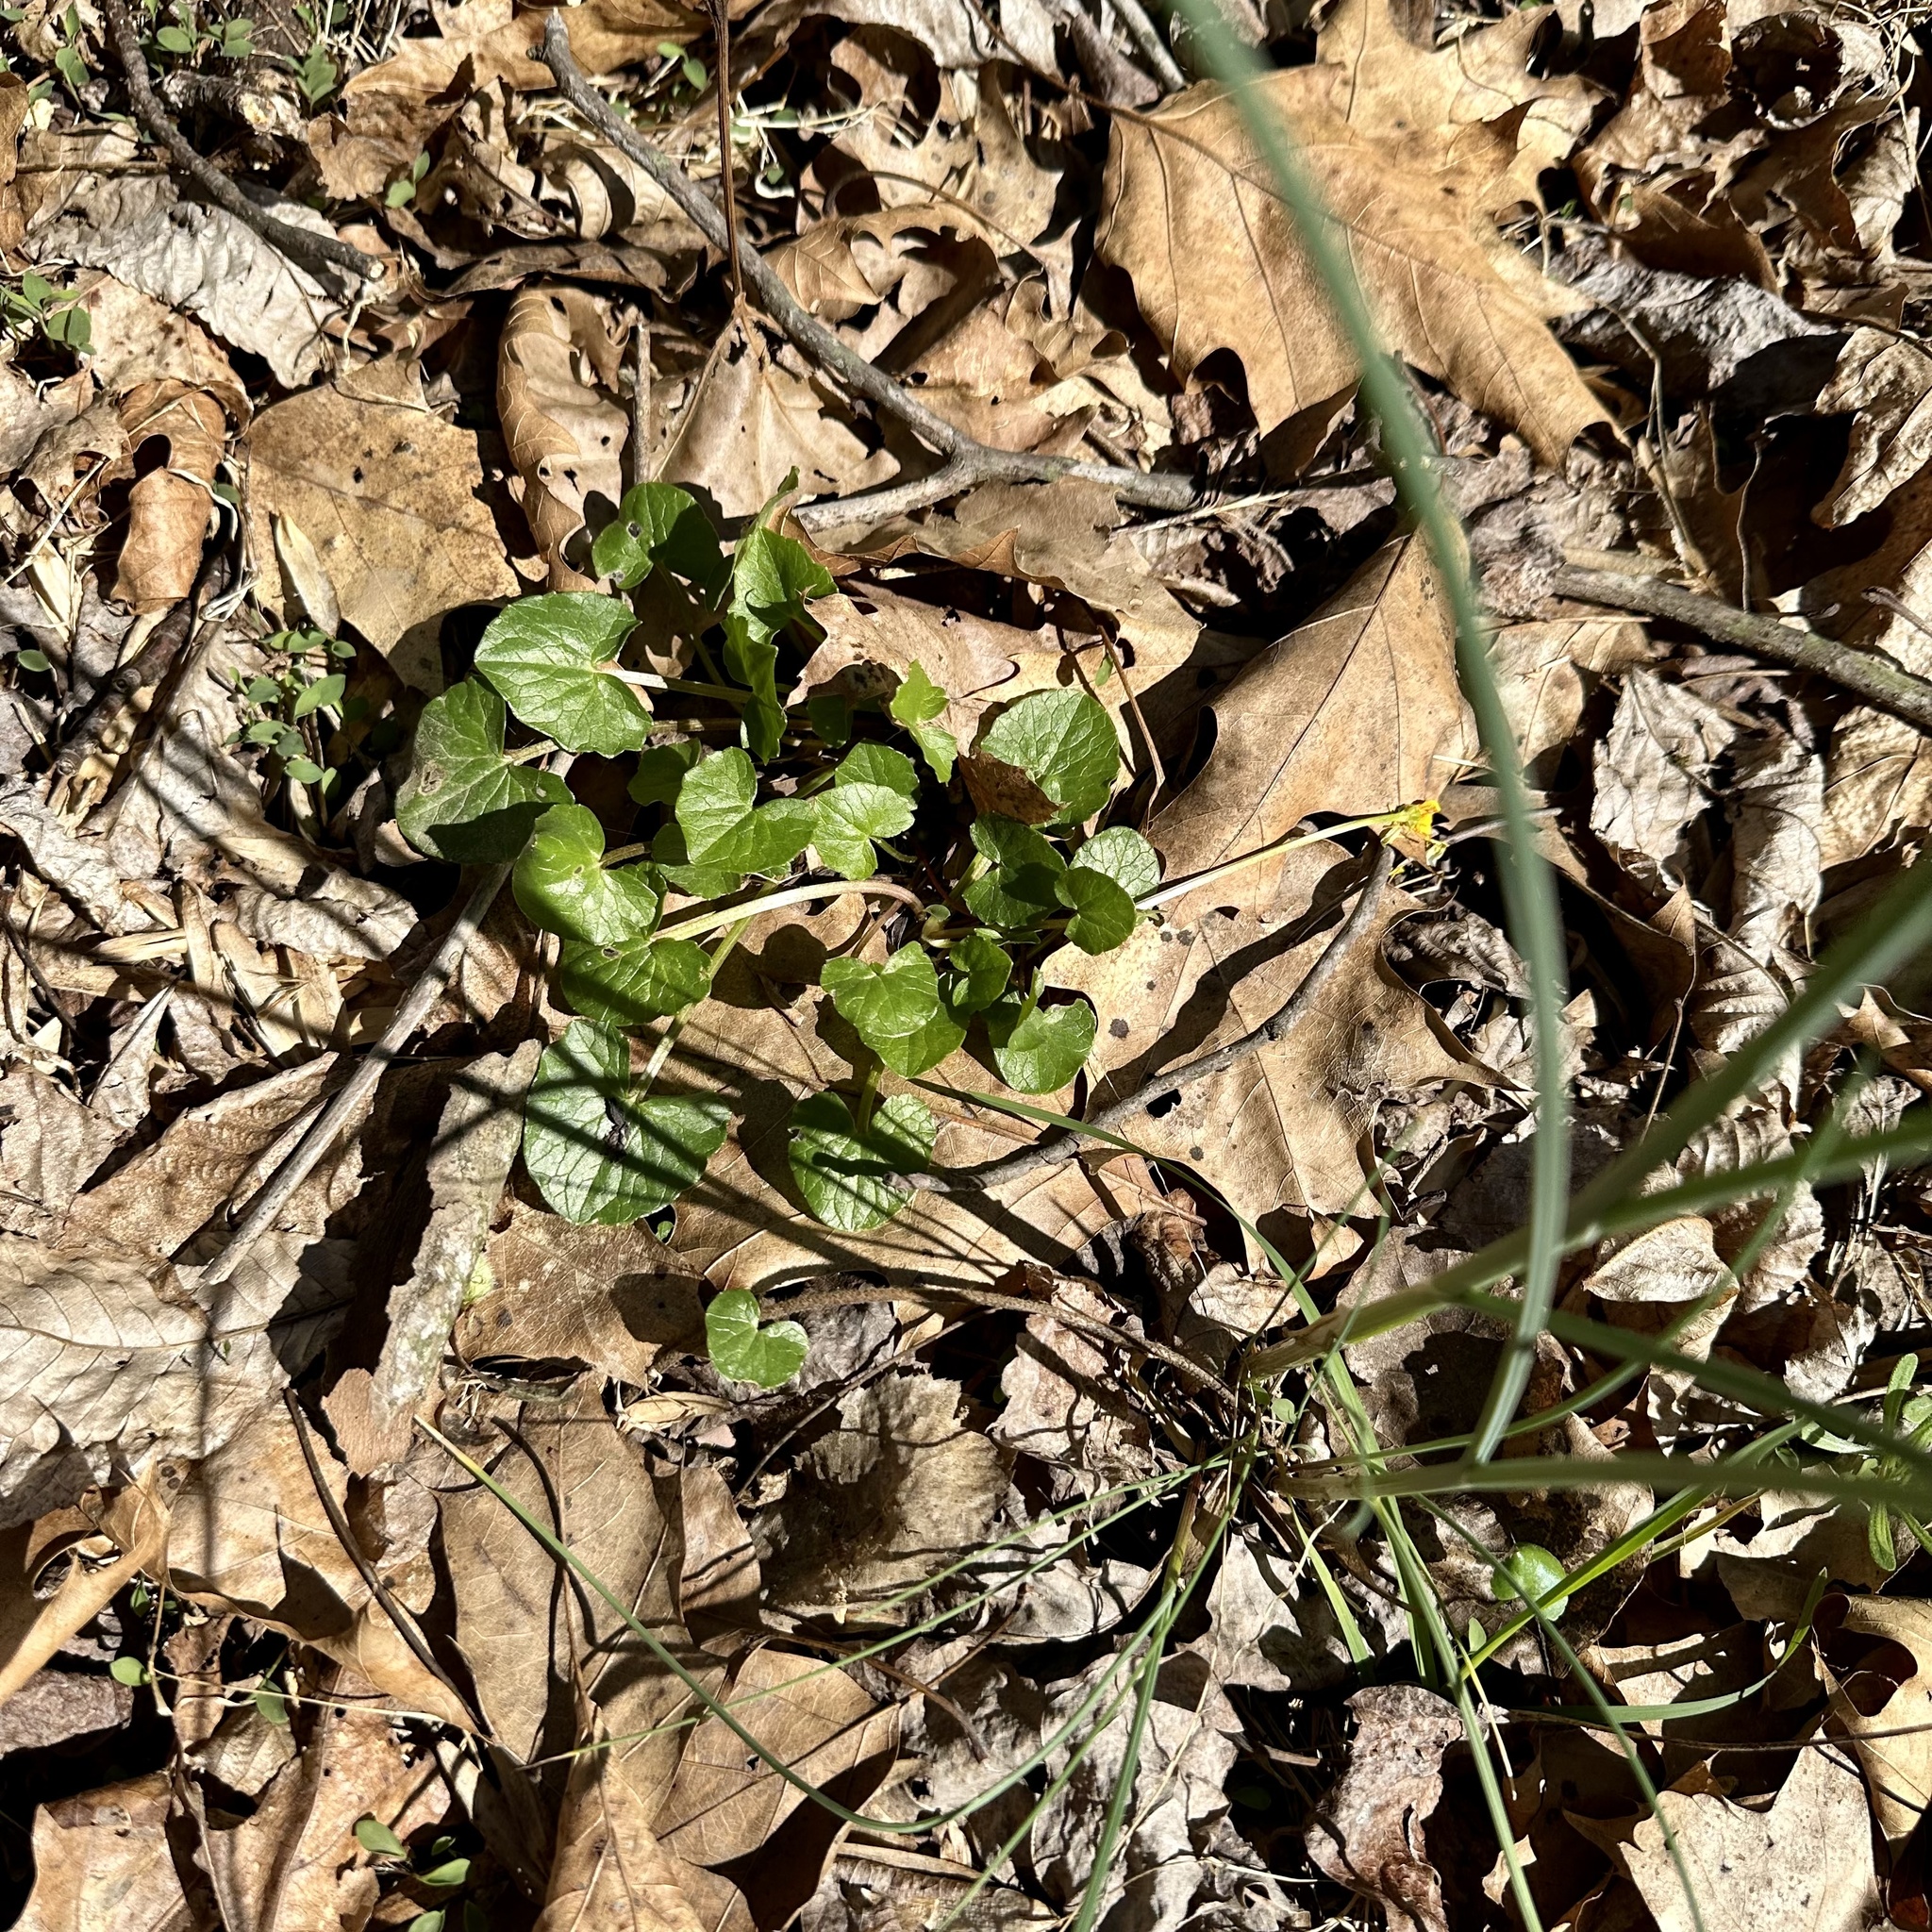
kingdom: Plantae
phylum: Tracheophyta
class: Magnoliopsida
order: Ranunculales
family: Ranunculaceae
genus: Ficaria
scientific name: Ficaria verna
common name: Lesser celandine
